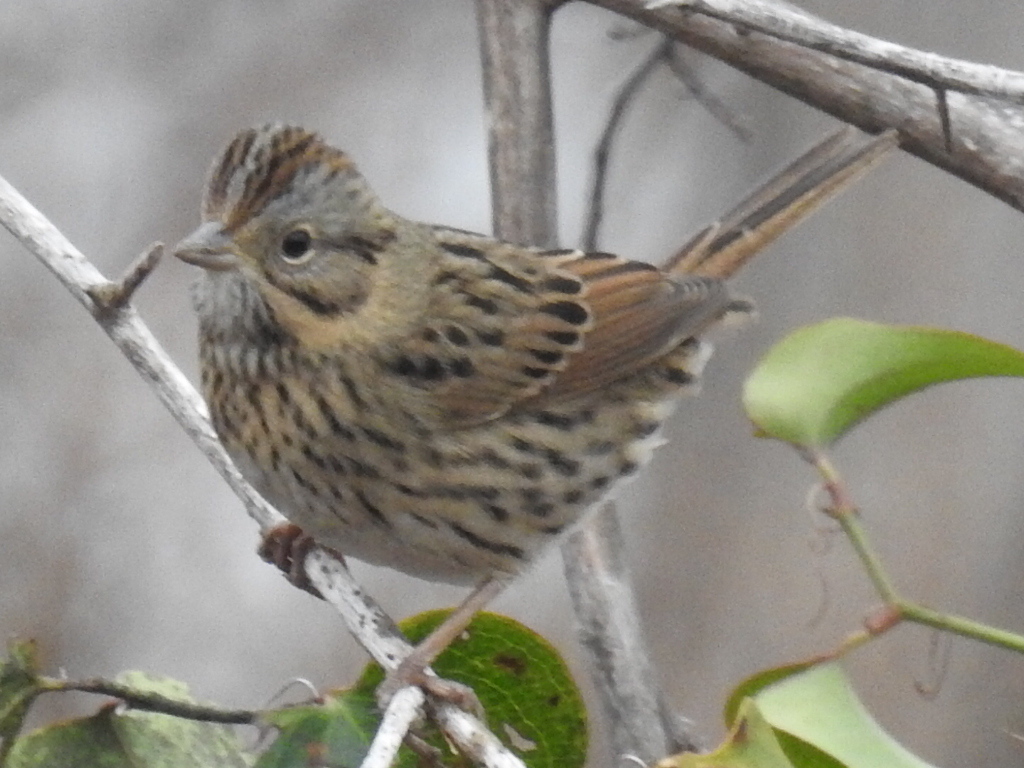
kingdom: Animalia
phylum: Chordata
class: Aves
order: Passeriformes
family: Passerellidae
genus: Melospiza
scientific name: Melospiza lincolnii
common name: Lincoln's sparrow
